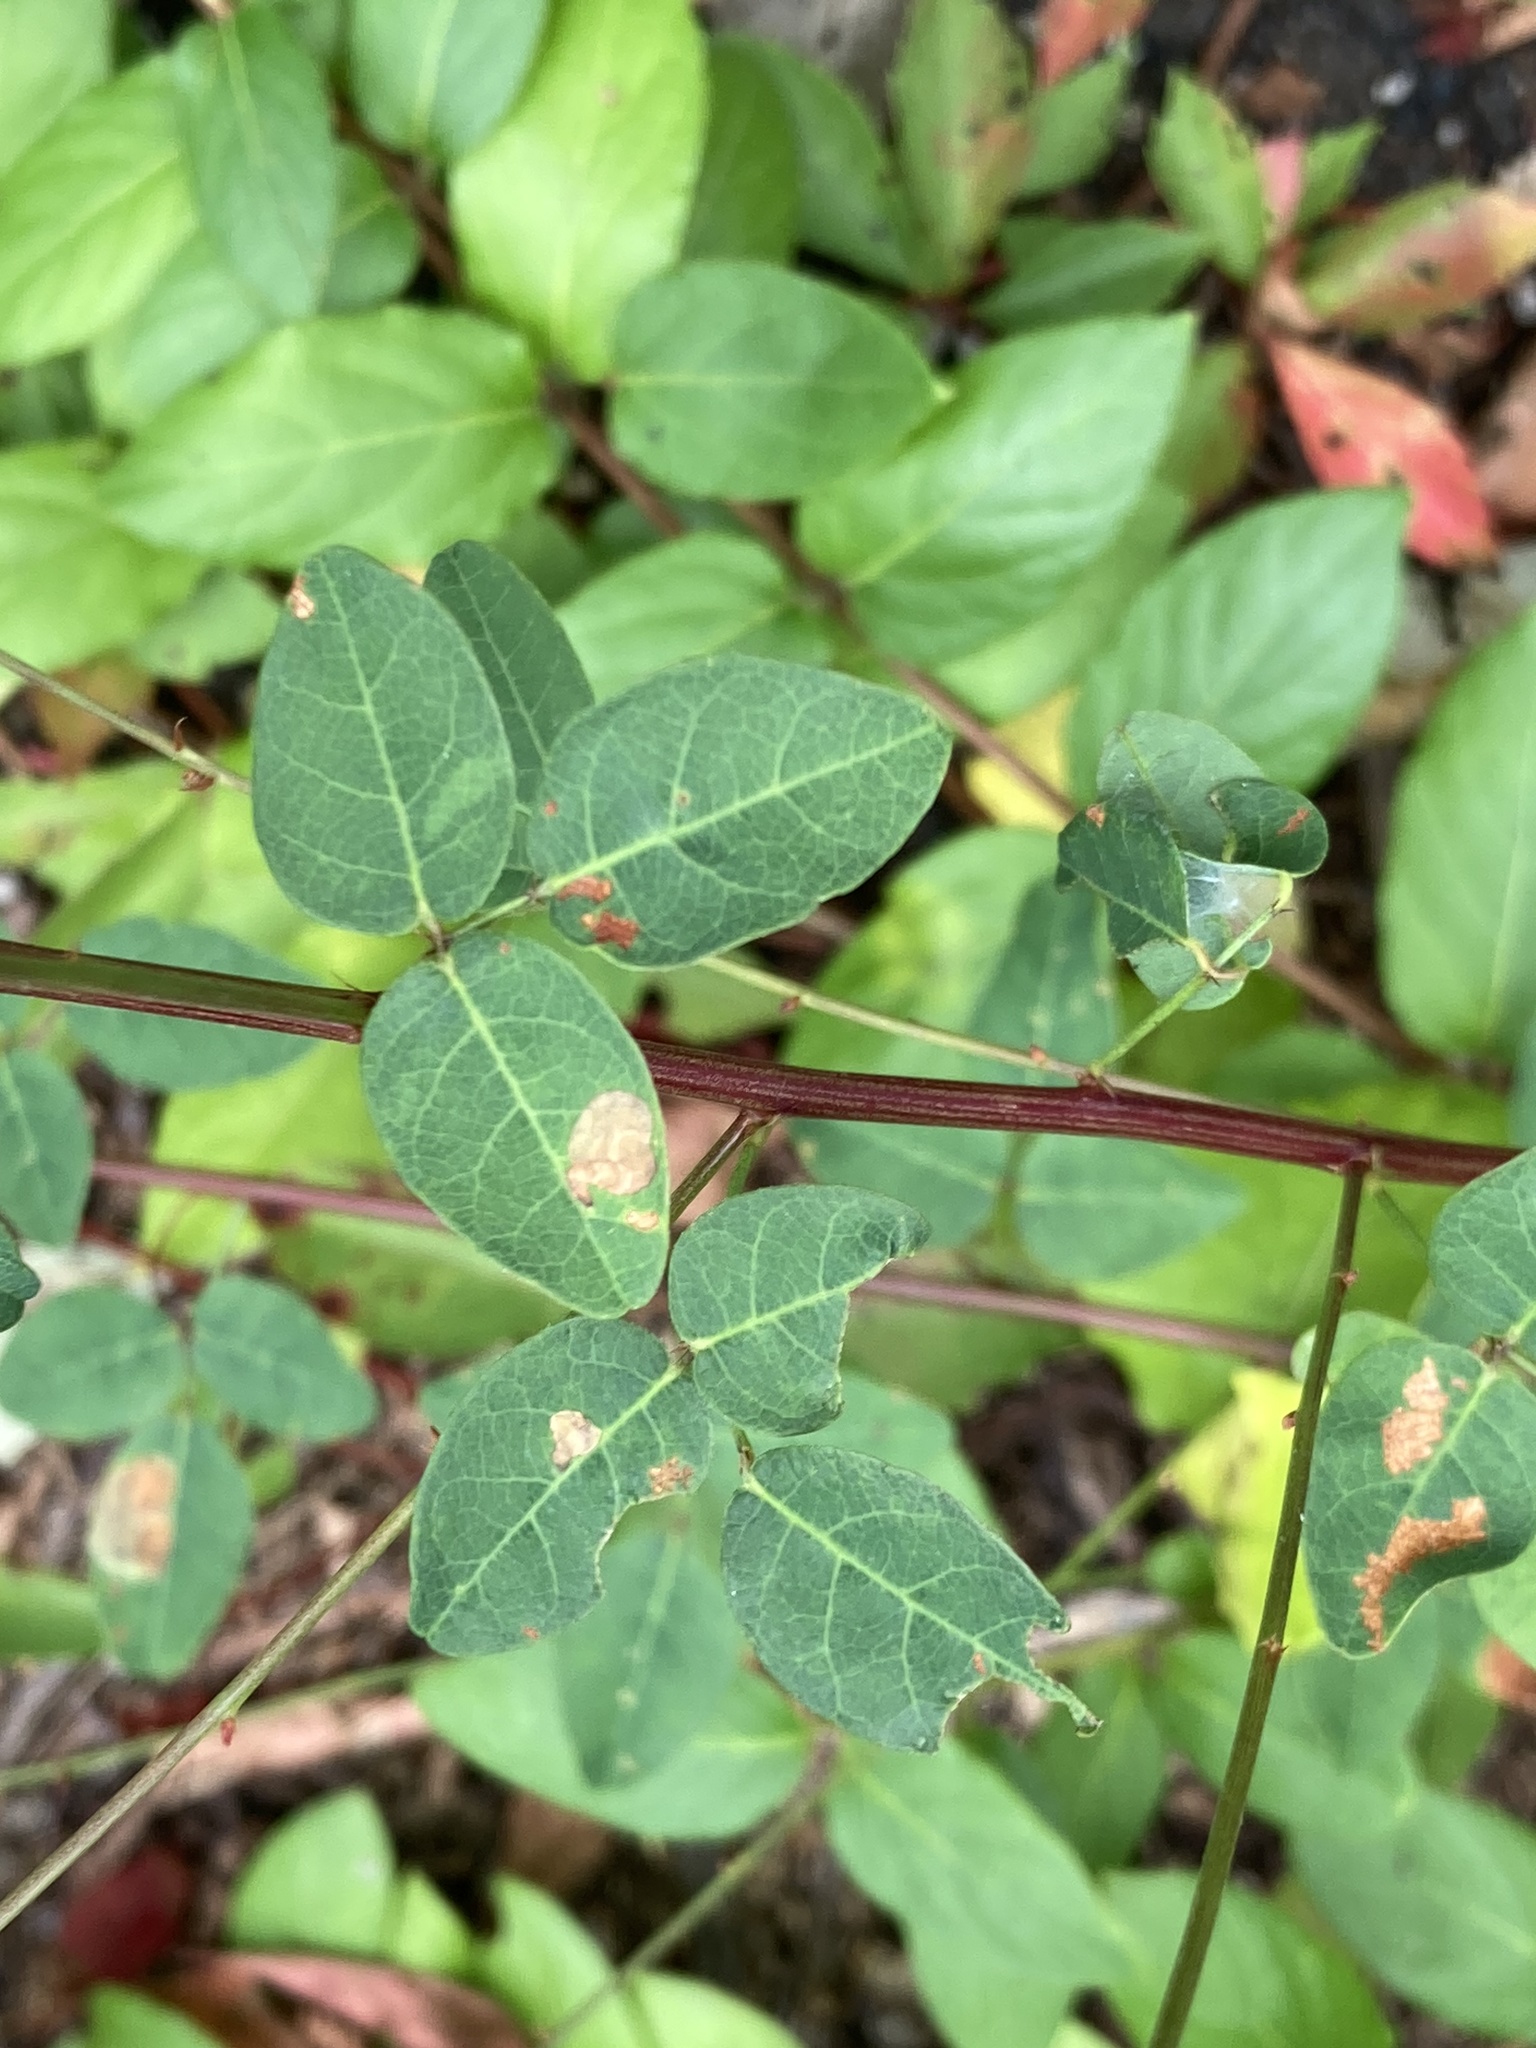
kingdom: Plantae
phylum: Tracheophyta
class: Magnoliopsida
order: Fabales
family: Fabaceae
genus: Desmodium
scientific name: Desmodium marilandicum
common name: Maryland tick-trefoil
